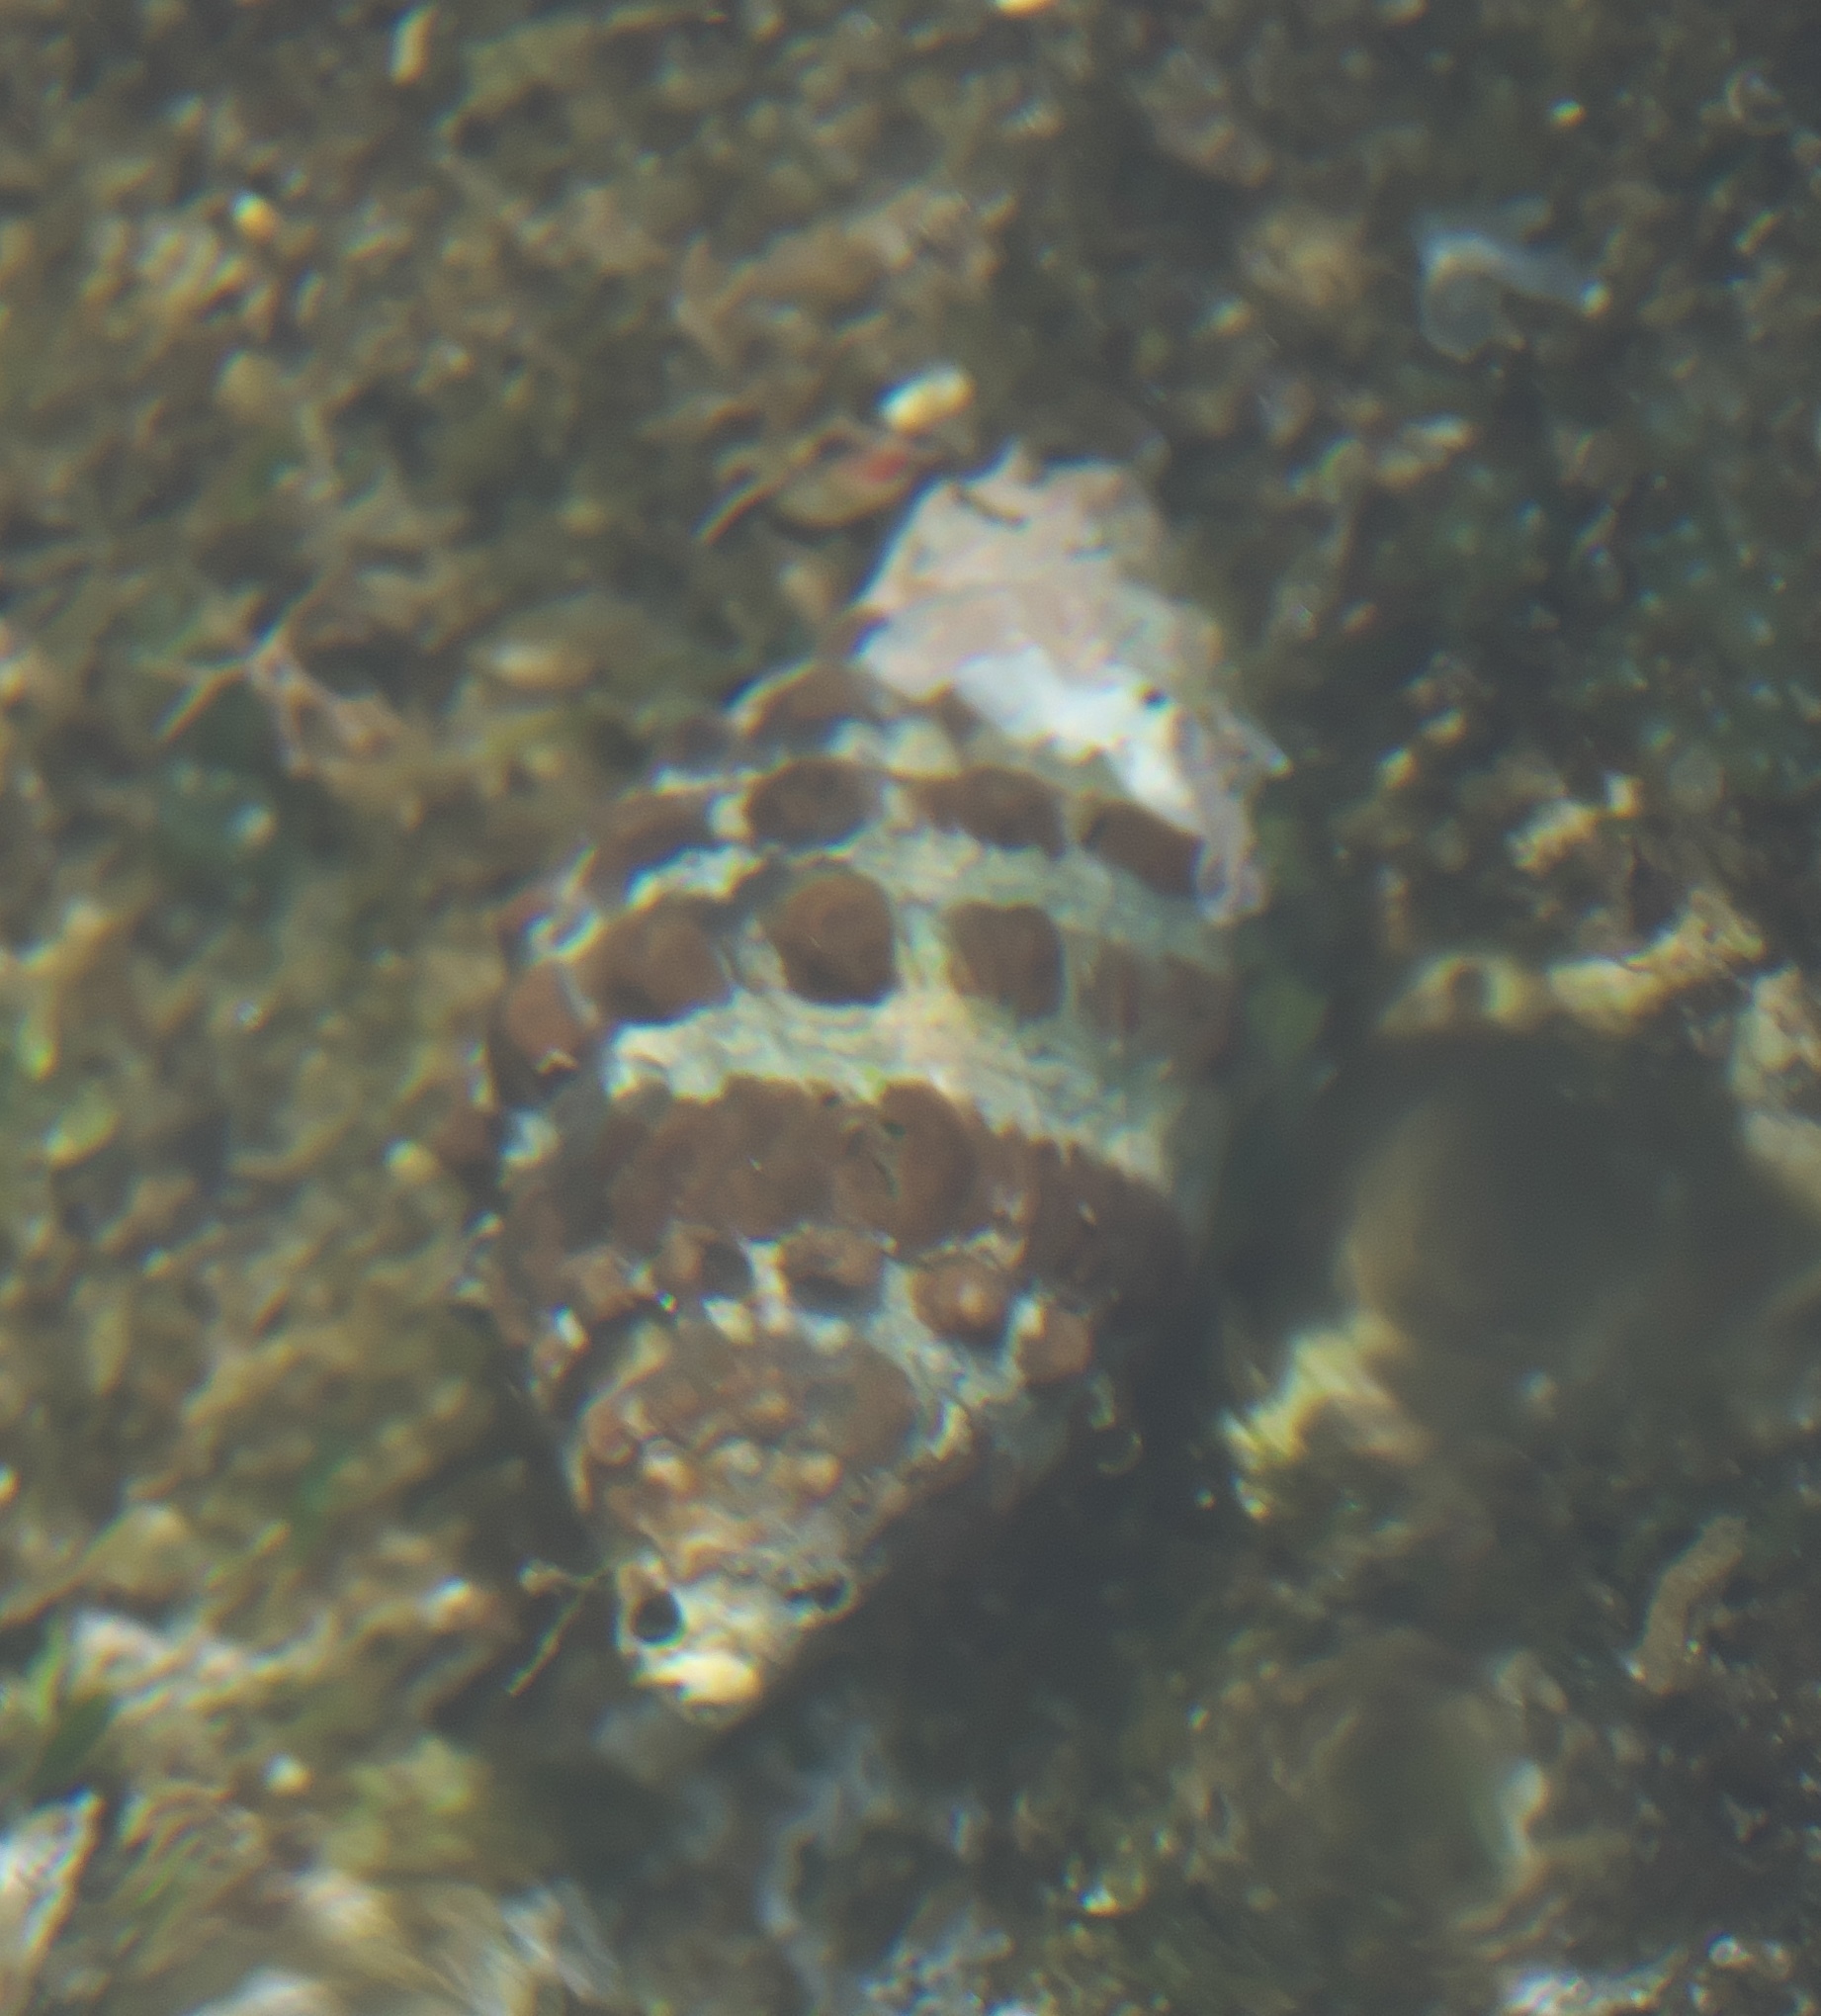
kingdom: Animalia
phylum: Mollusca
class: Gastropoda
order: Neogastropoda
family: Muricidae
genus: Tenguella
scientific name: Tenguella granulata
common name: Granular drupe
